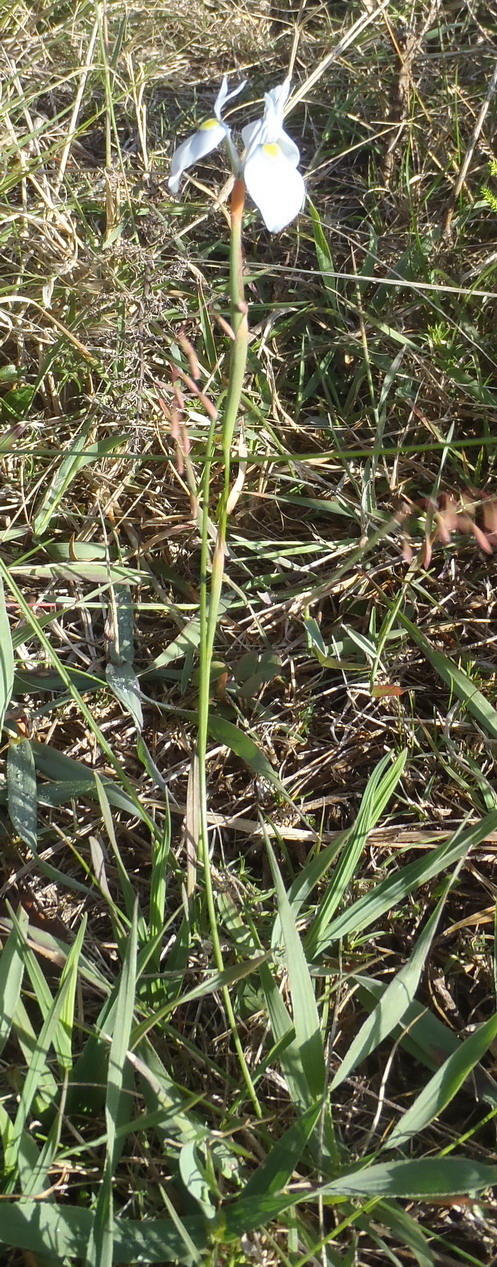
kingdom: Plantae
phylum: Tracheophyta
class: Liliopsida
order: Asparagales
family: Iridaceae
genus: Moraea
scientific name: Moraea tripetala
